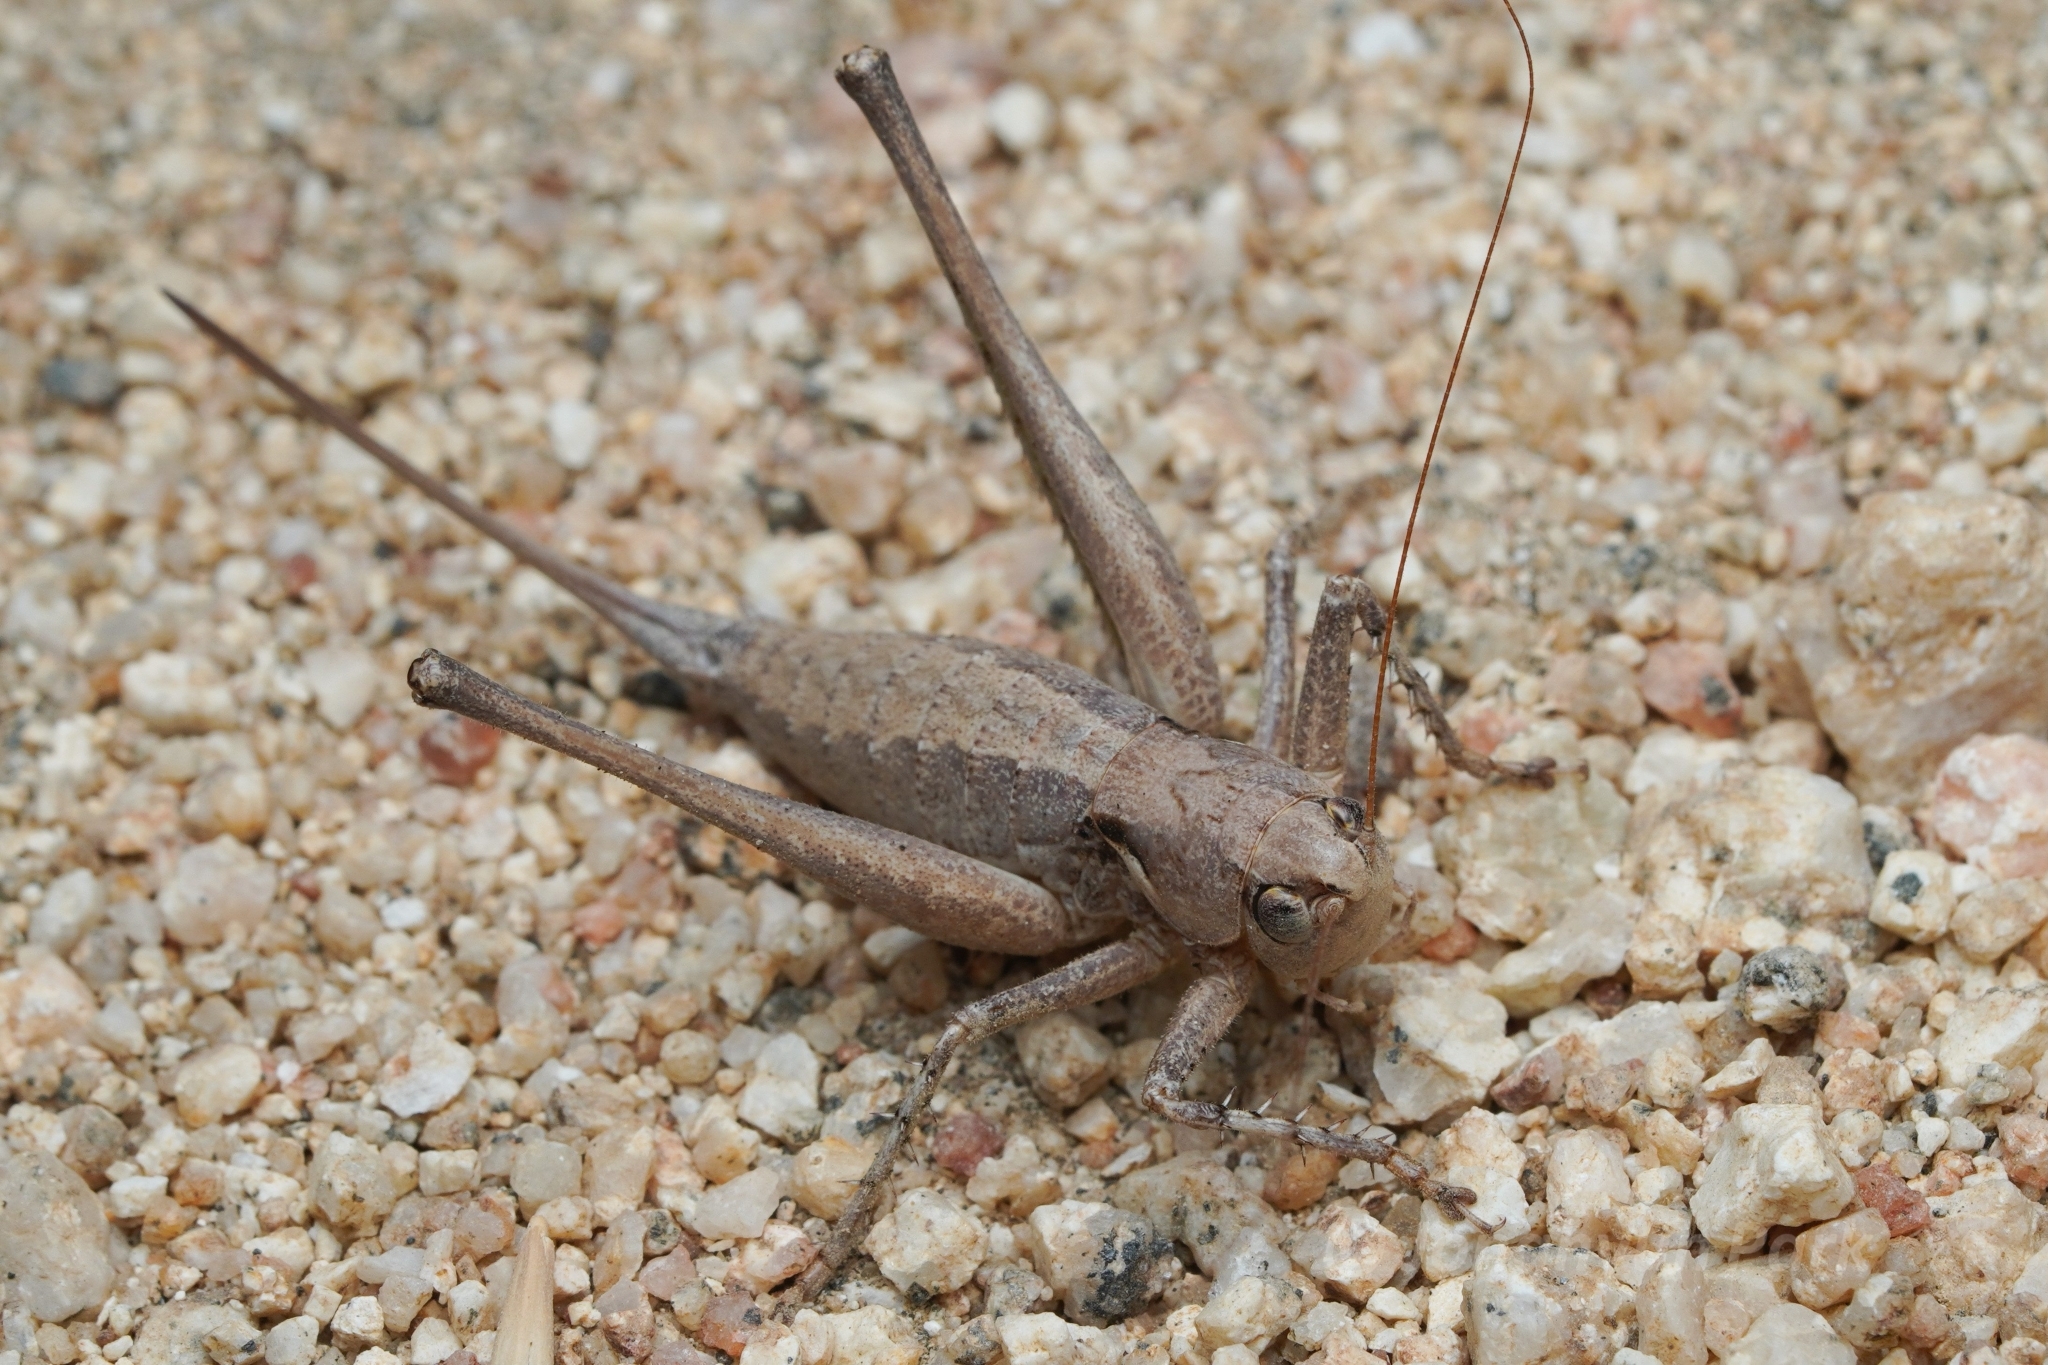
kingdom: Animalia
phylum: Arthropoda
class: Insecta
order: Orthoptera
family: Tettigoniidae
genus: Idiostatus
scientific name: Idiostatus aequalis
